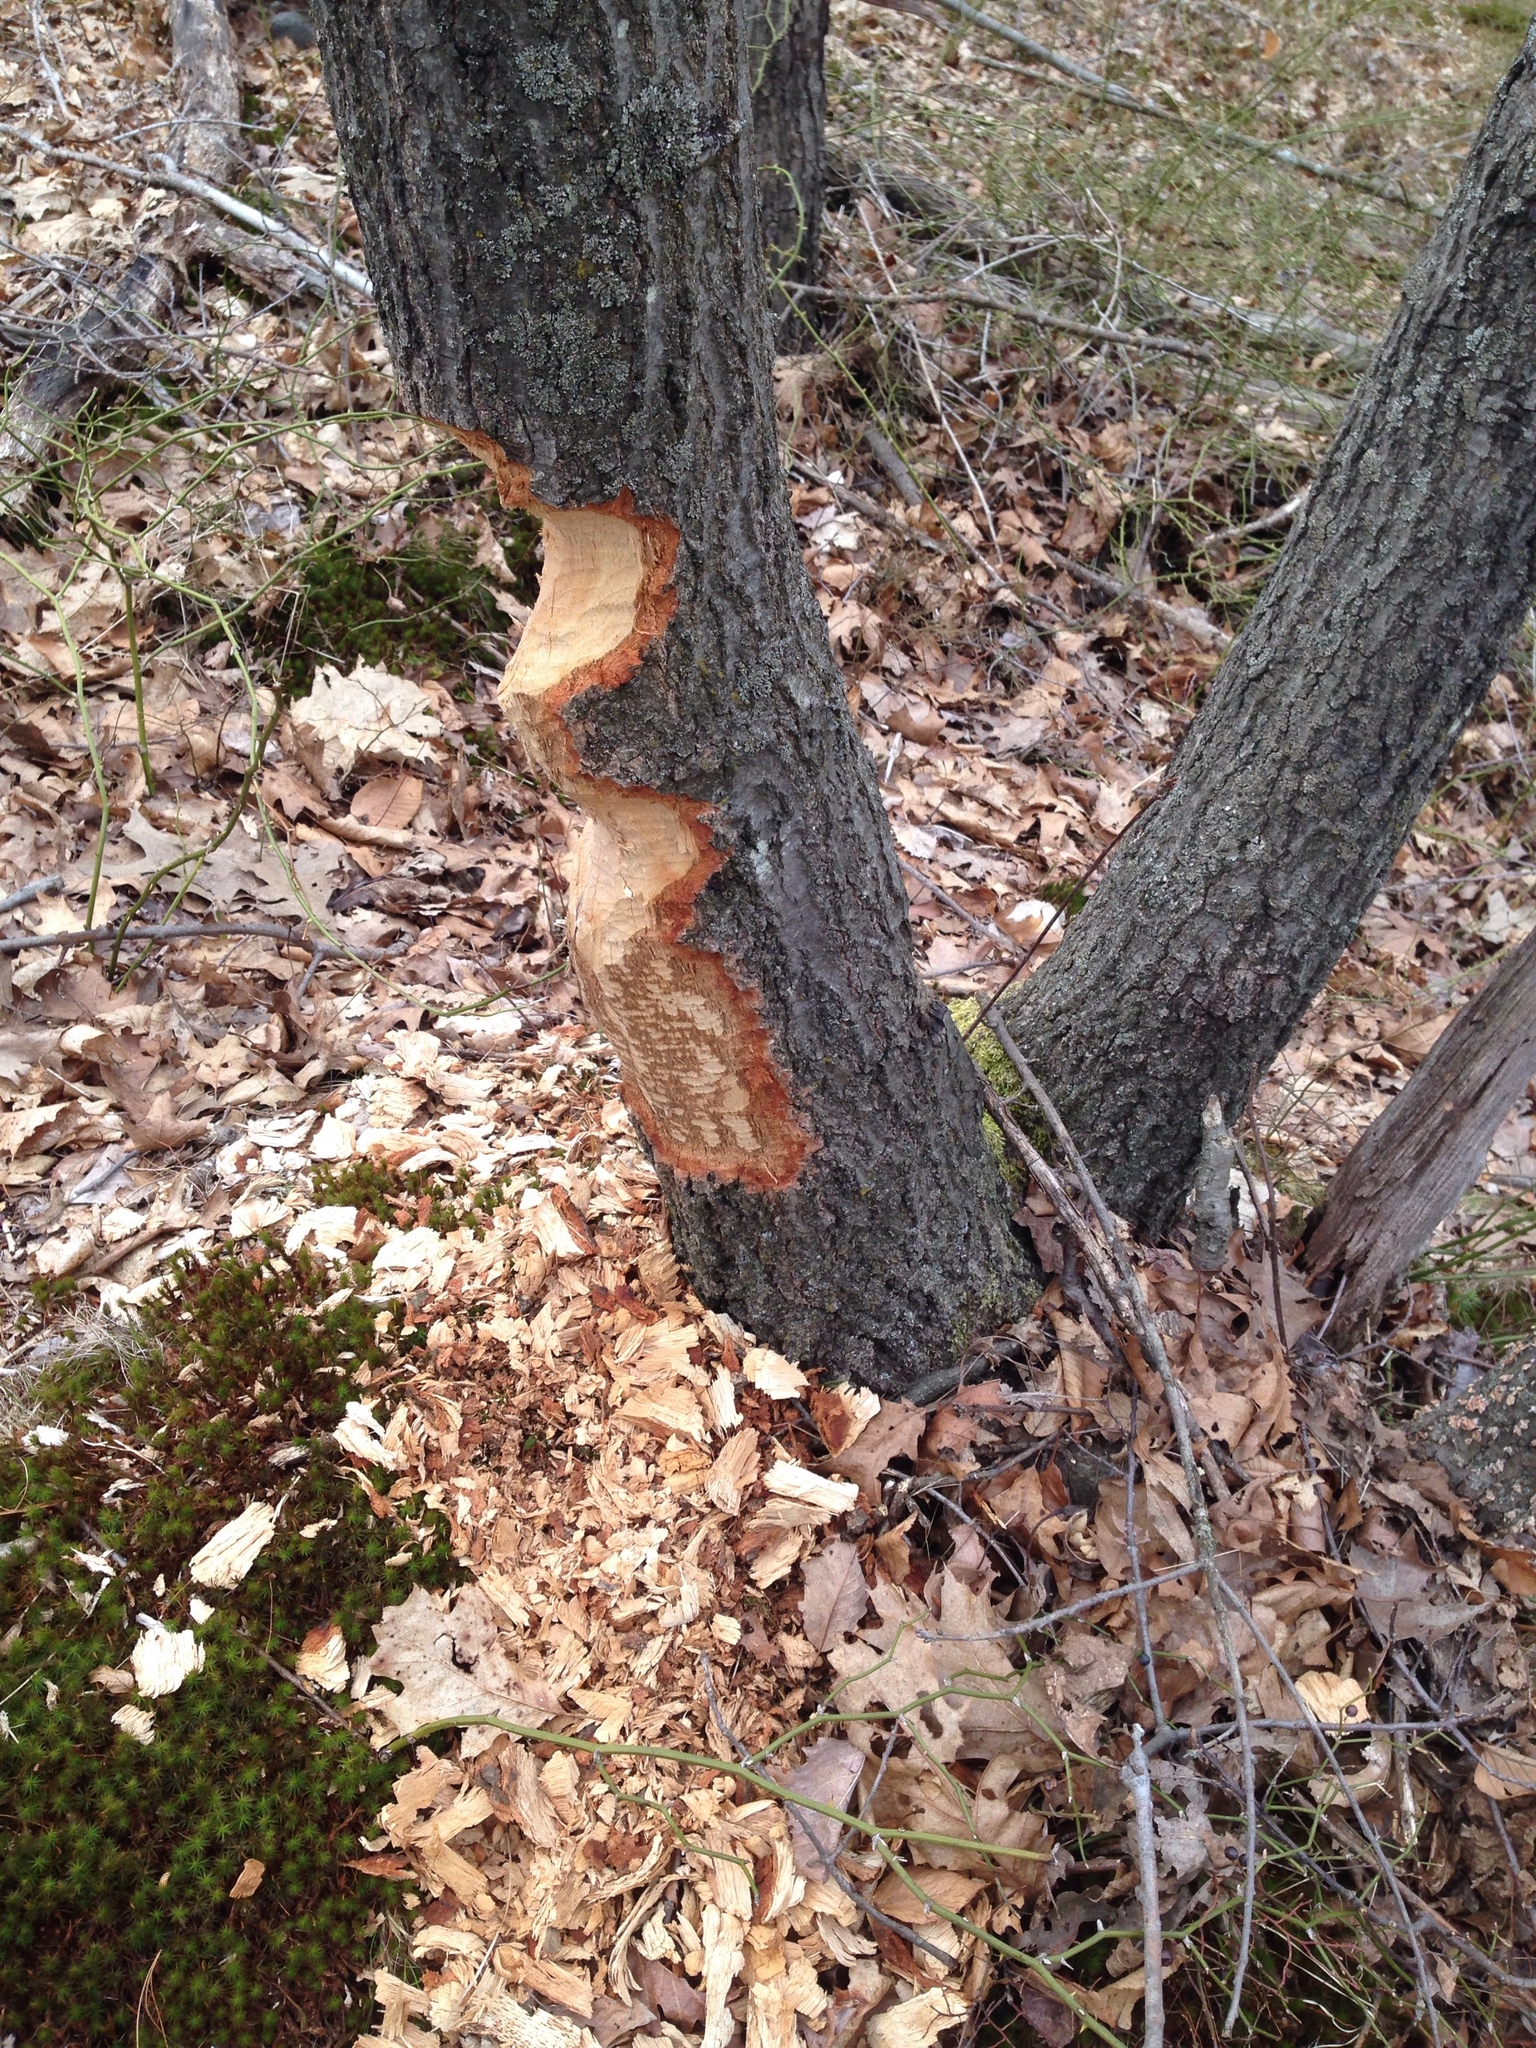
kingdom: Animalia
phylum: Chordata
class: Mammalia
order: Rodentia
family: Castoridae
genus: Castor
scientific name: Castor canadensis
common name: American beaver
